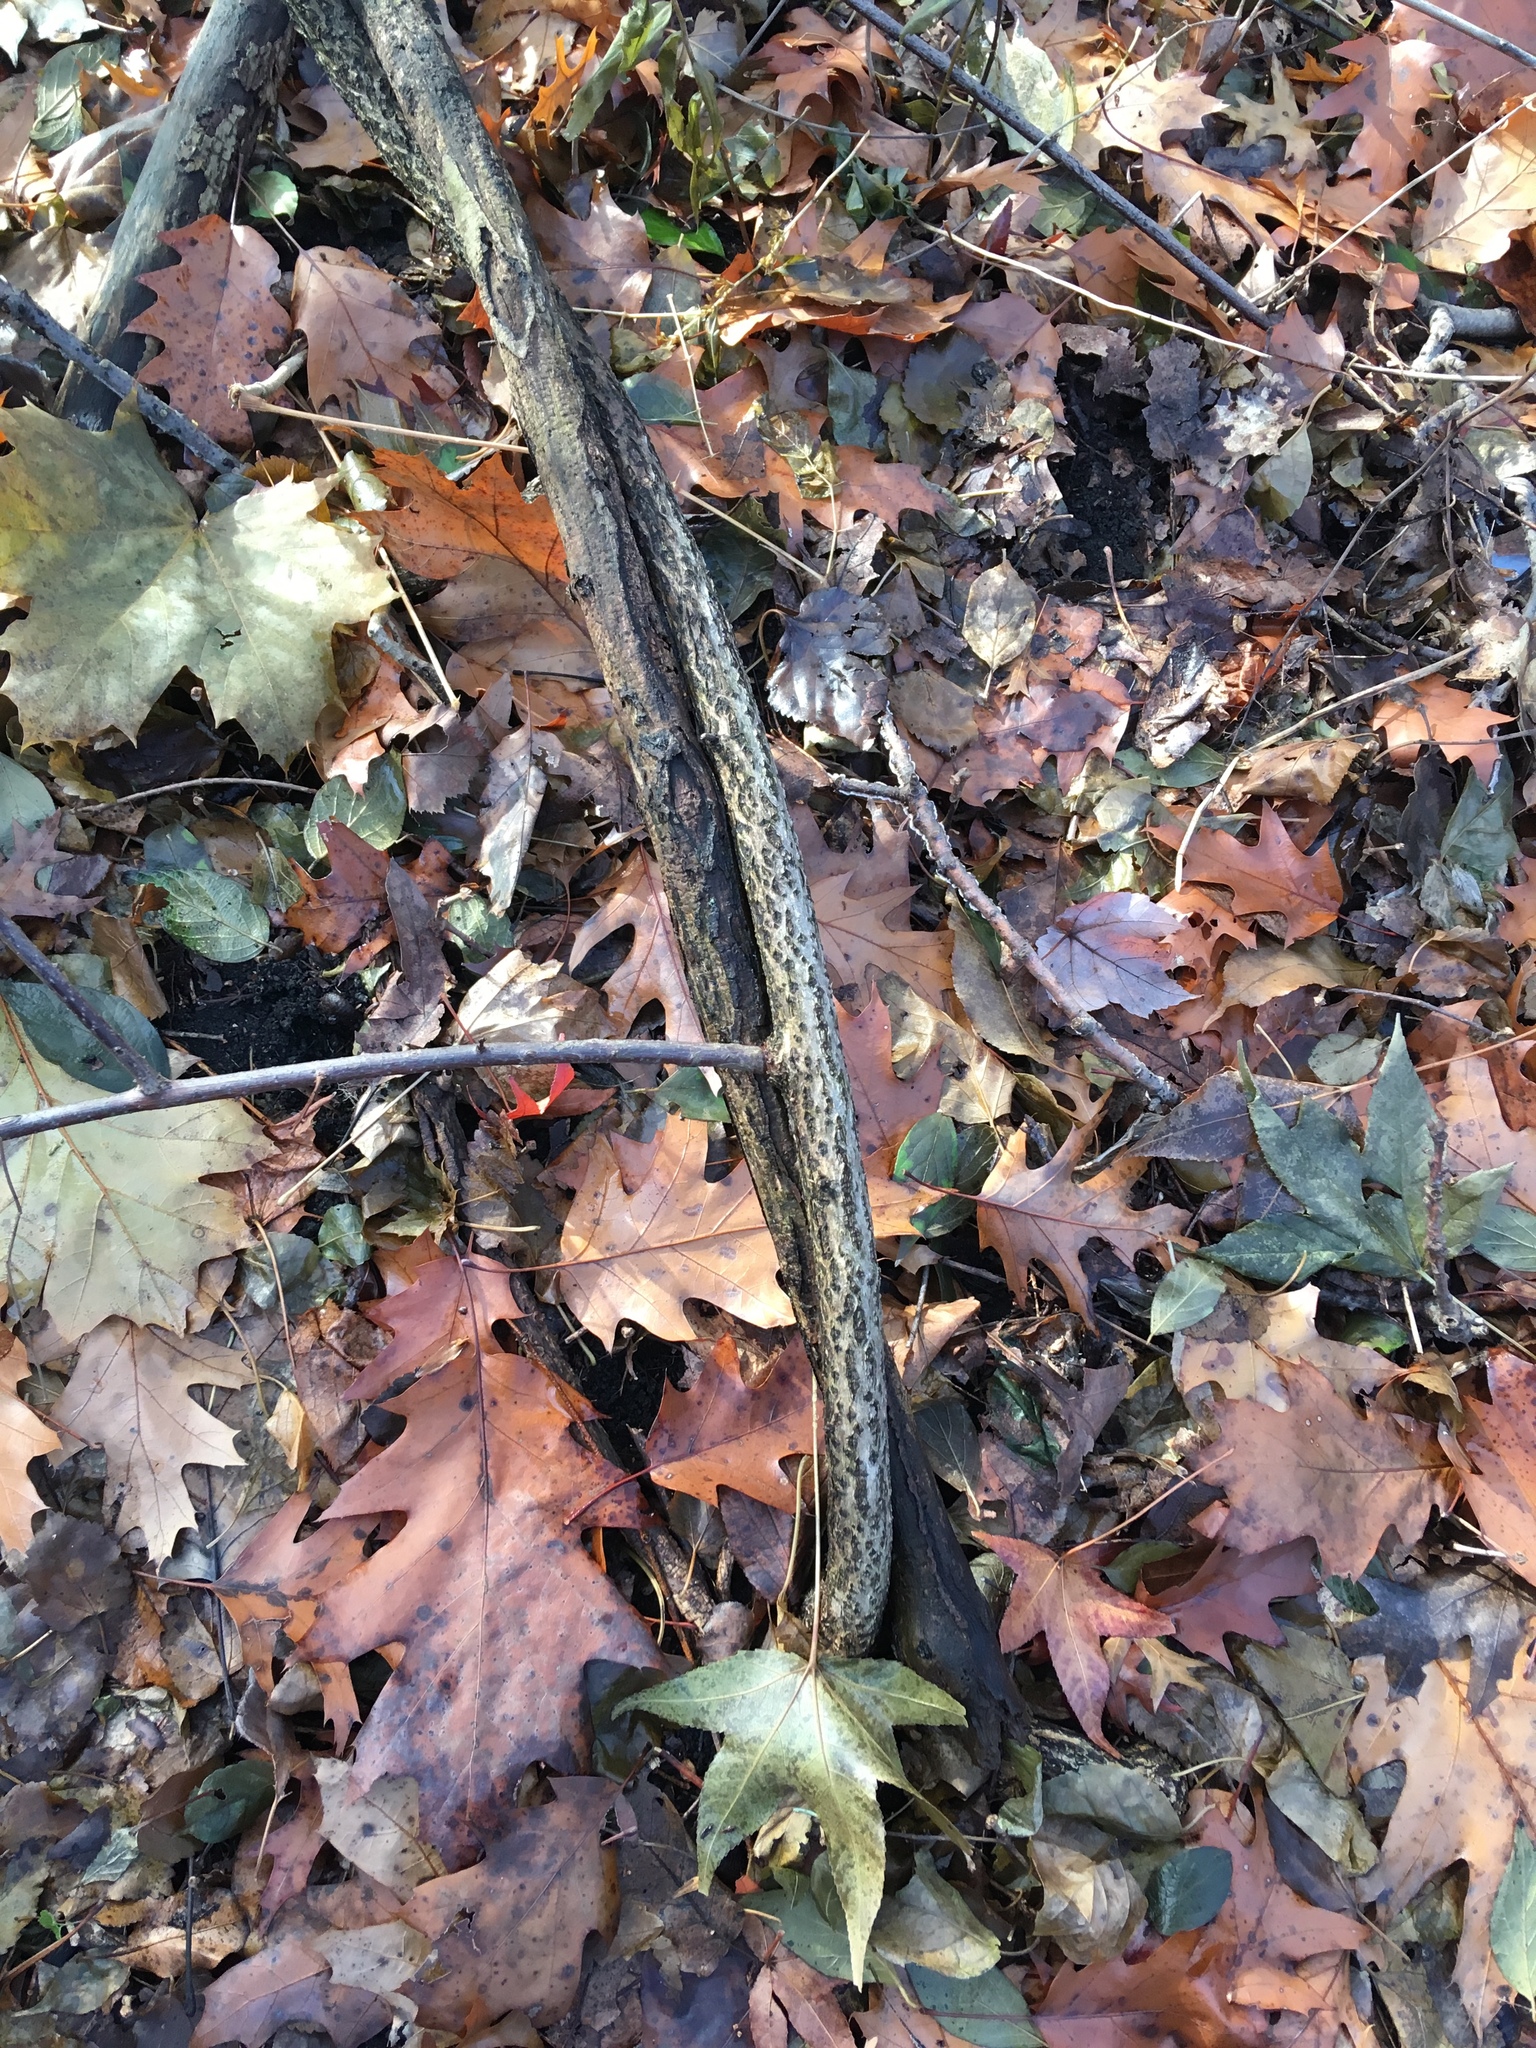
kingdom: Plantae
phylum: Tracheophyta
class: Magnoliopsida
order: Celastrales
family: Celastraceae
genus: Celastrus
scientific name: Celastrus orbiculatus
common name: Oriental bittersweet
